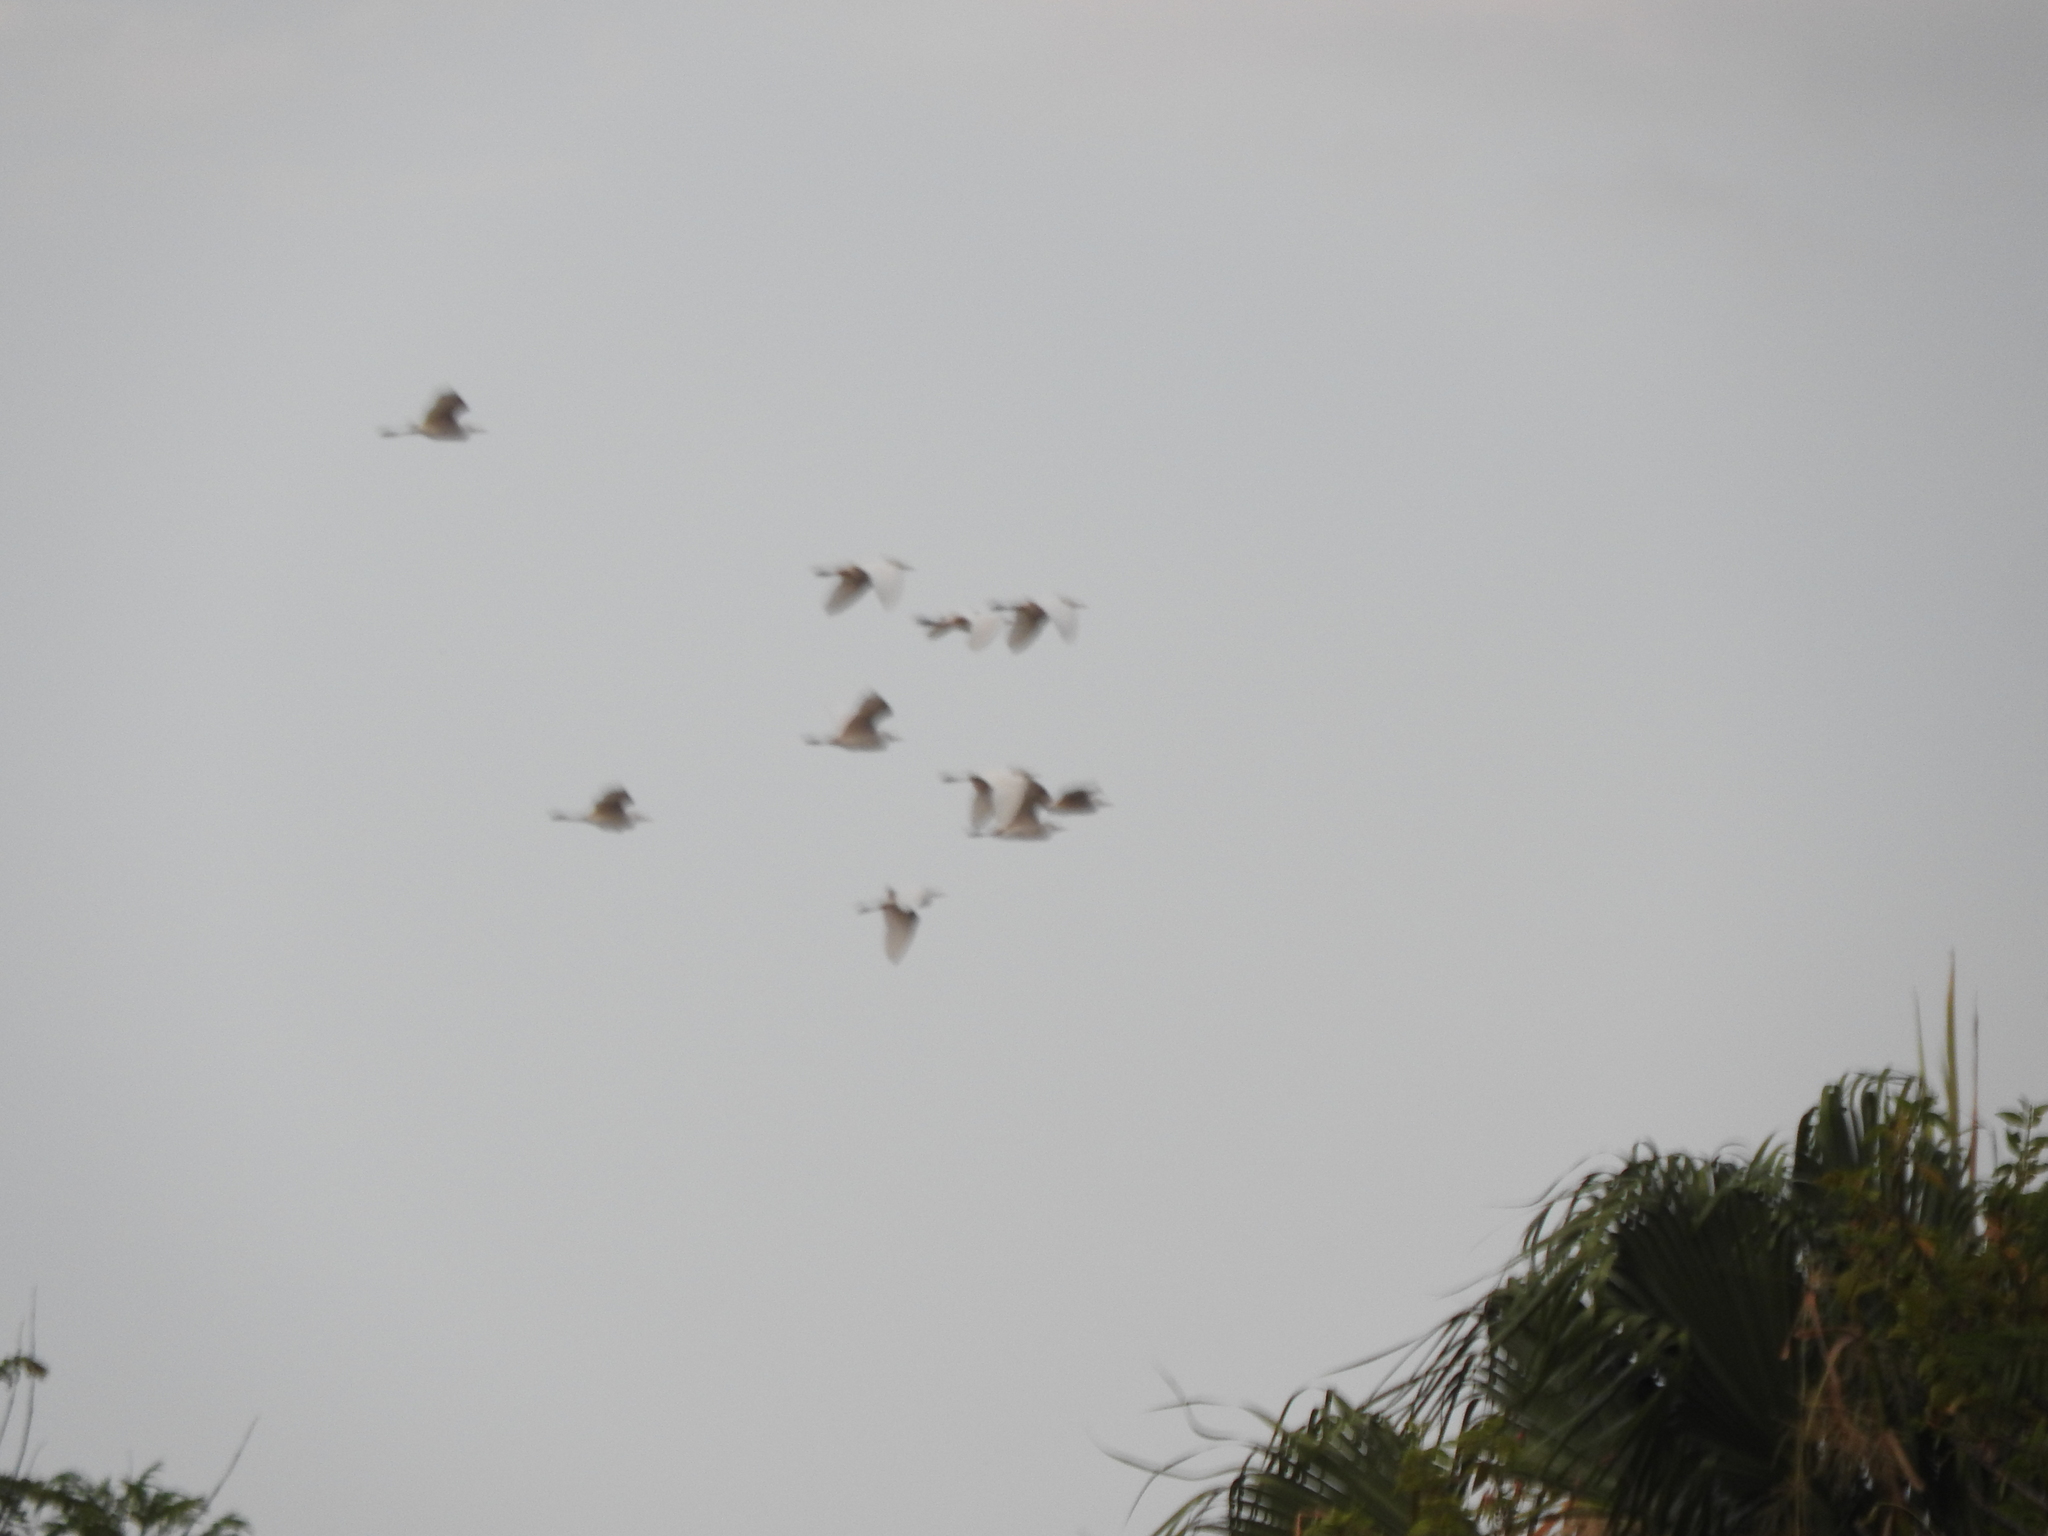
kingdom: Animalia
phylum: Chordata
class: Aves
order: Pelecaniformes
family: Ardeidae
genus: Bubulcus
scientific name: Bubulcus ibis
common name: Cattle egret
